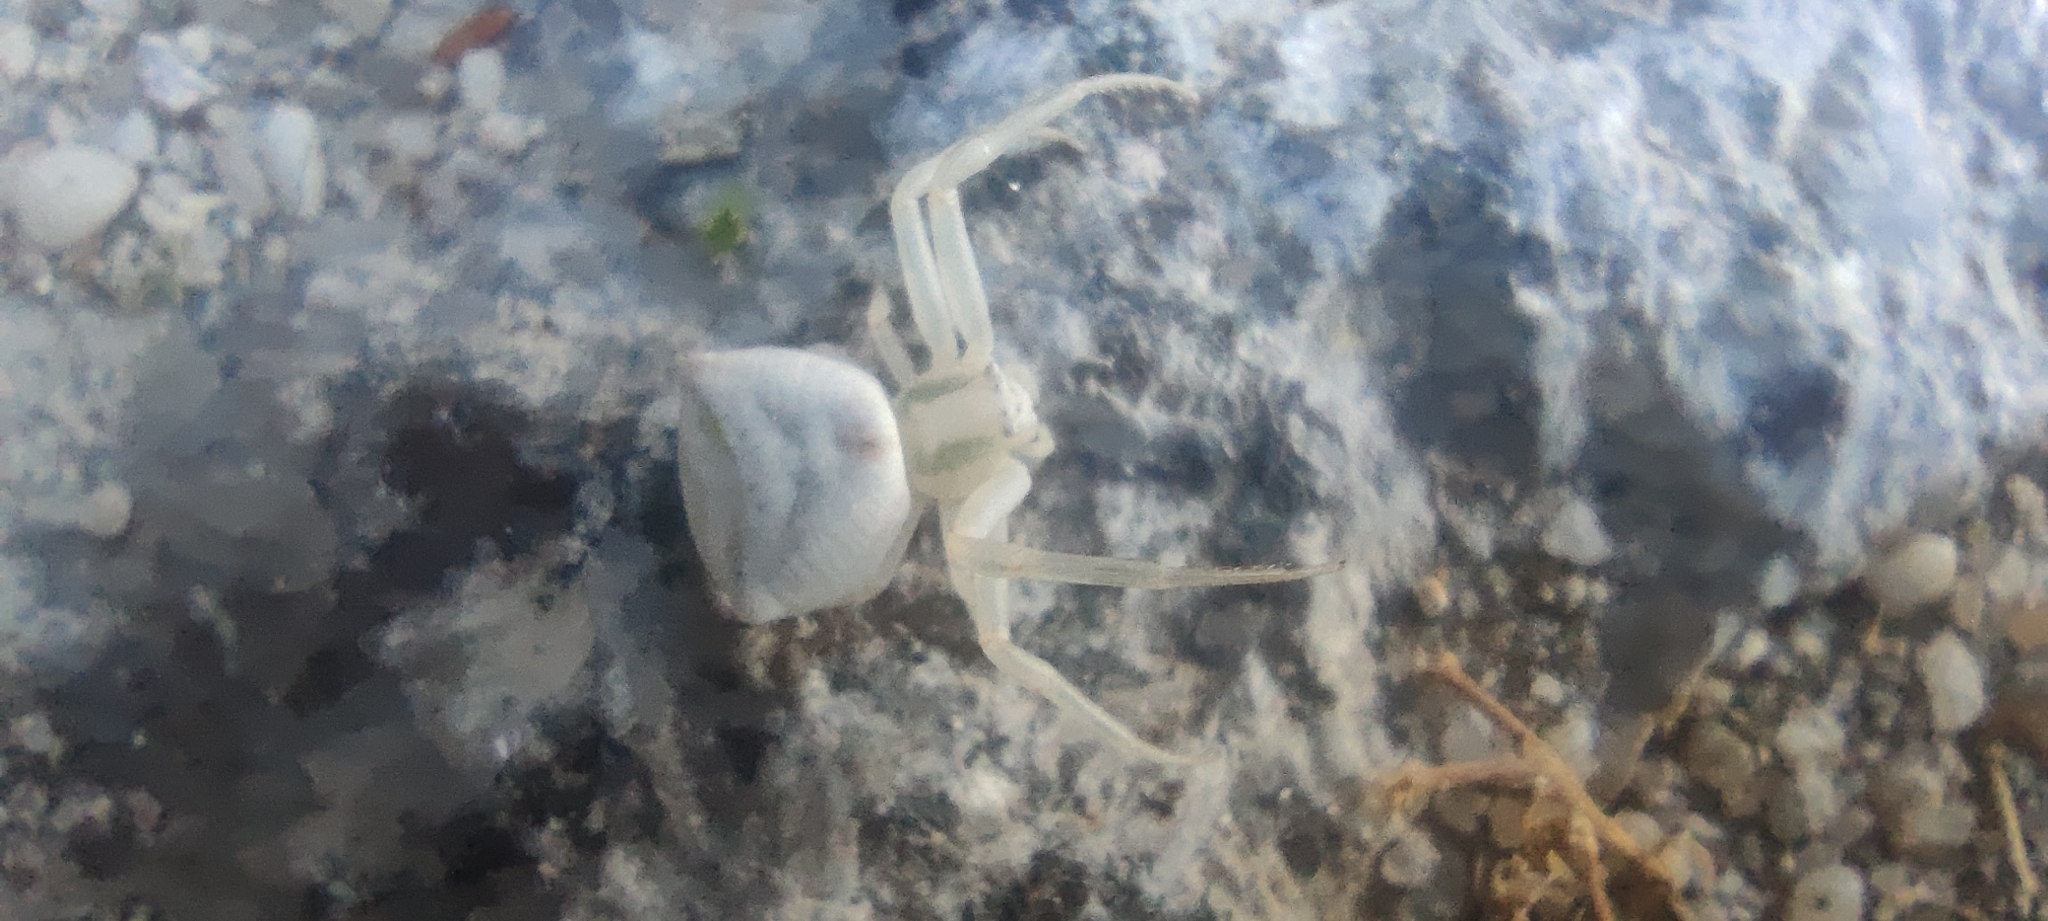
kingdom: Animalia
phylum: Arthropoda
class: Arachnida
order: Araneae
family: Thomisidae
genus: Thomisus
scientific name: Thomisus onustus
